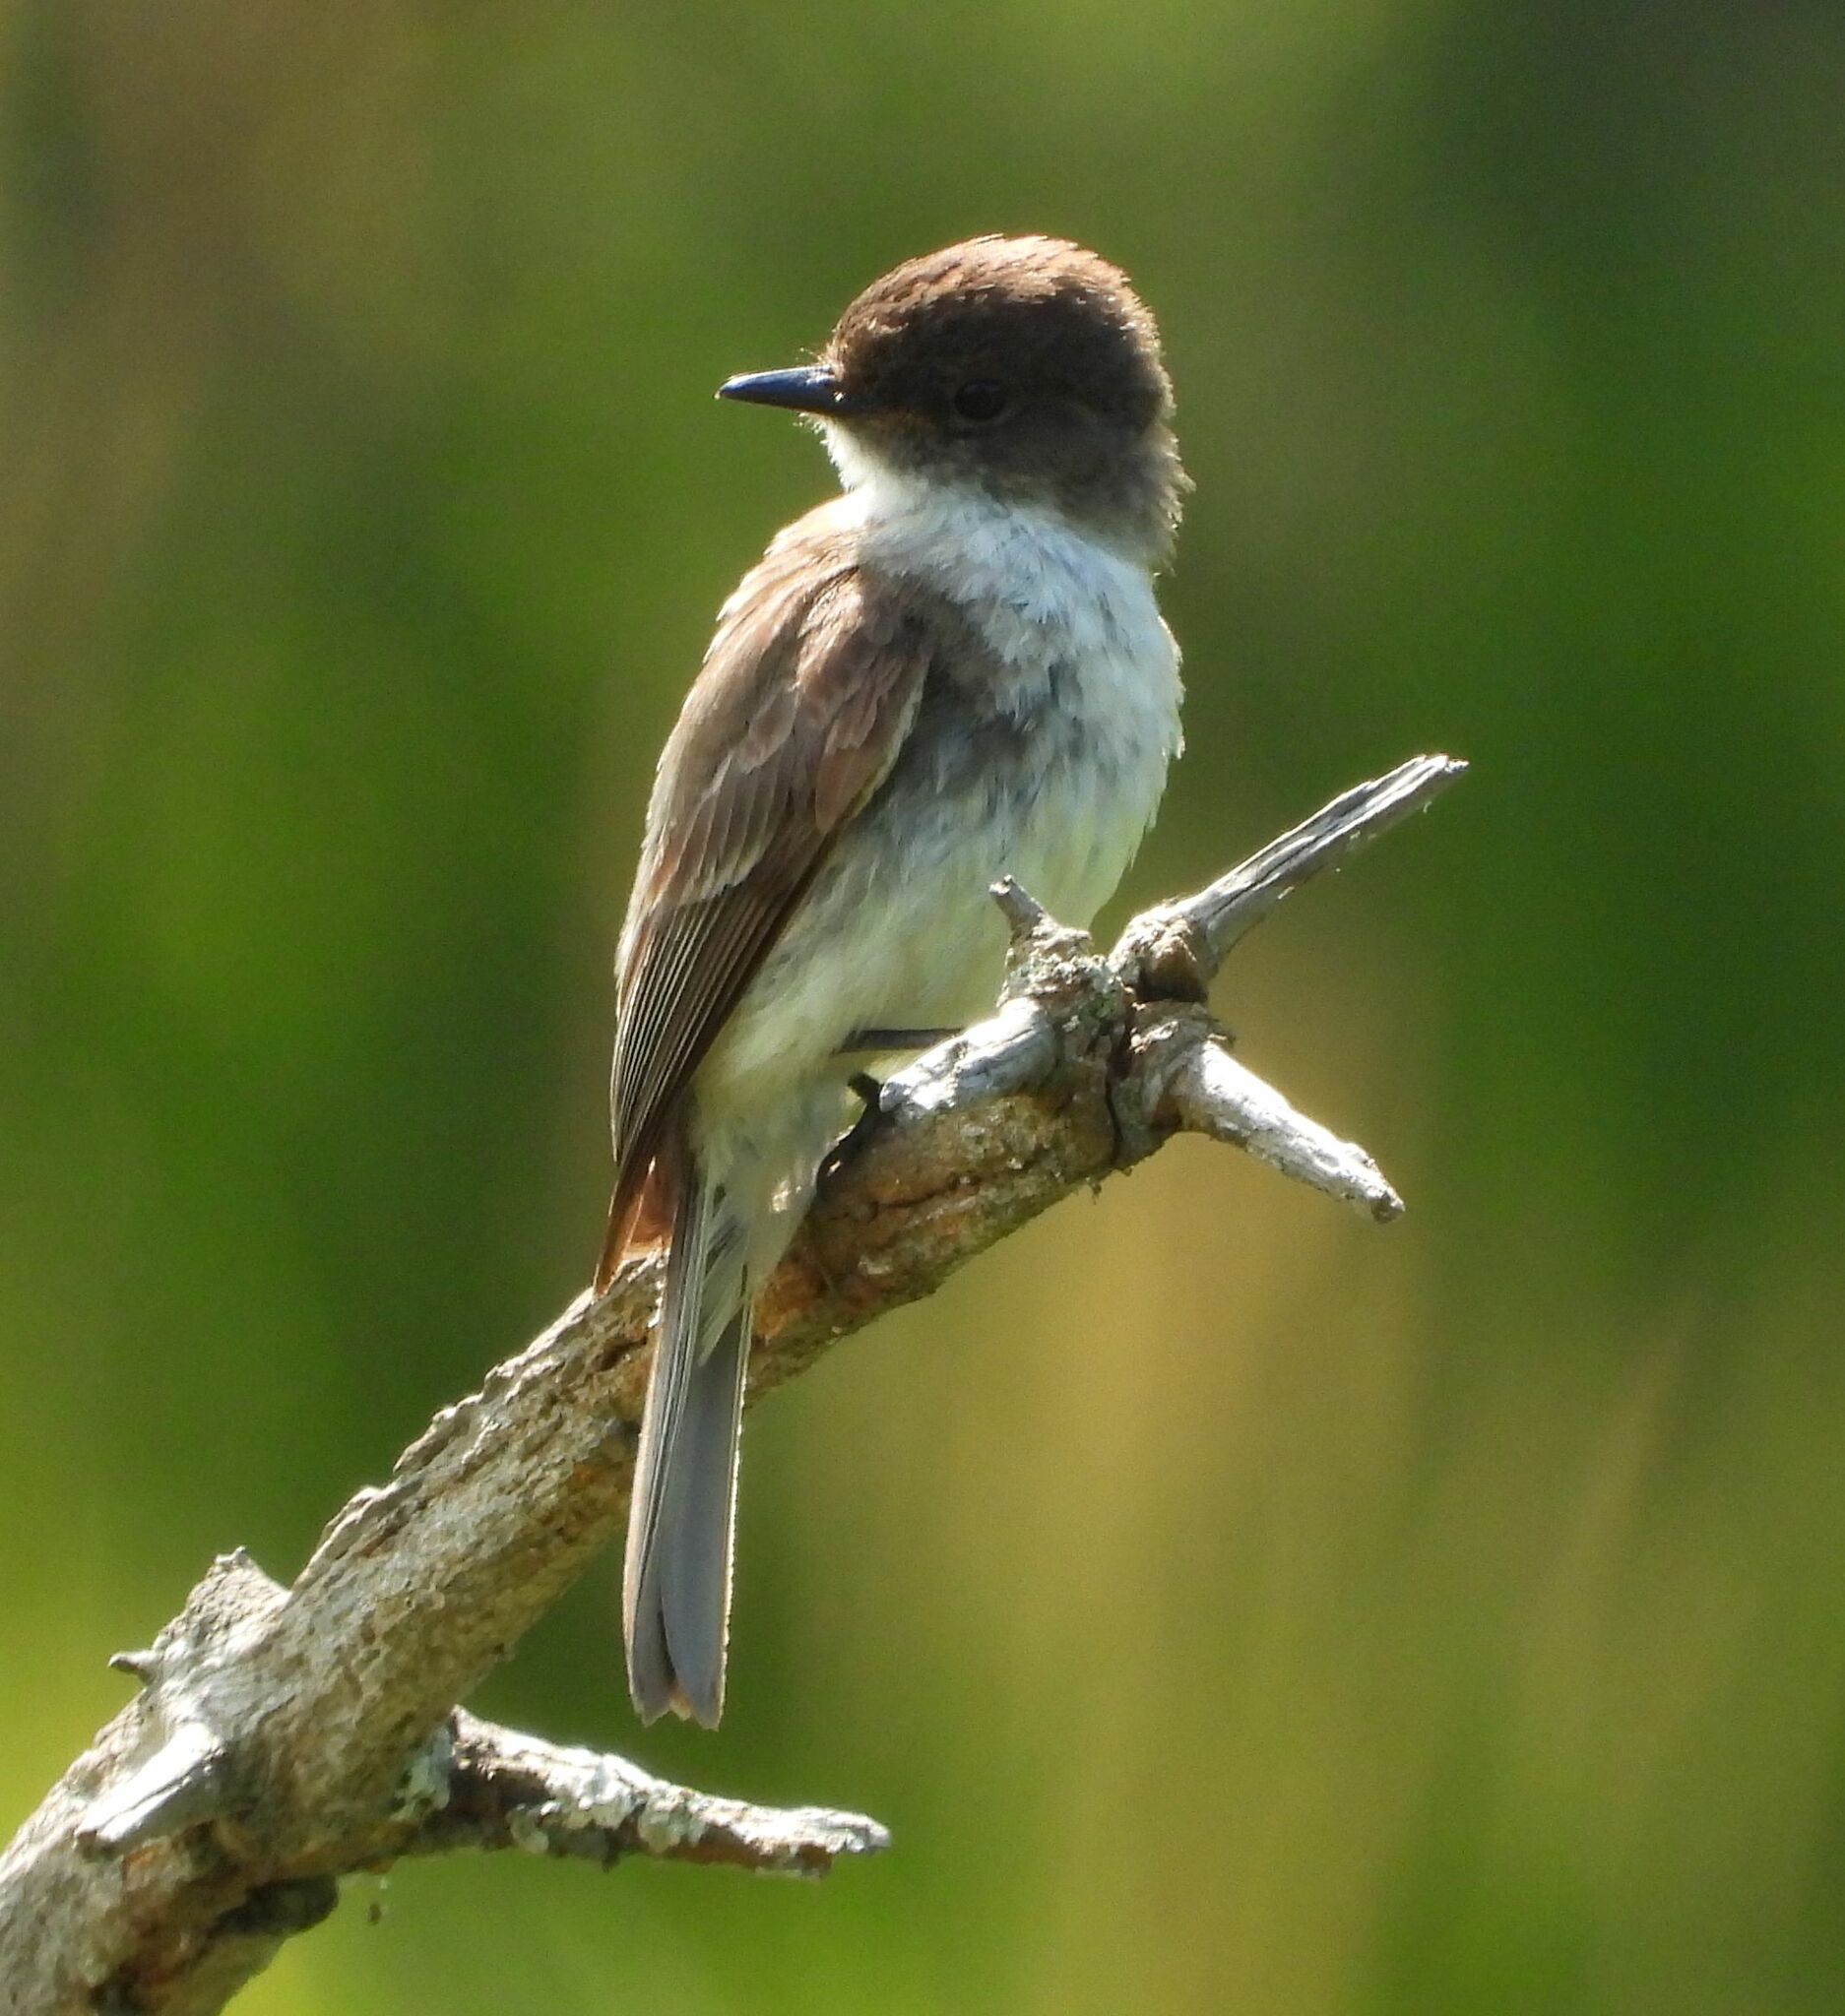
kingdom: Animalia
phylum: Chordata
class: Aves
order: Passeriformes
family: Tyrannidae
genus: Sayornis
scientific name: Sayornis phoebe
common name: Eastern phoebe
